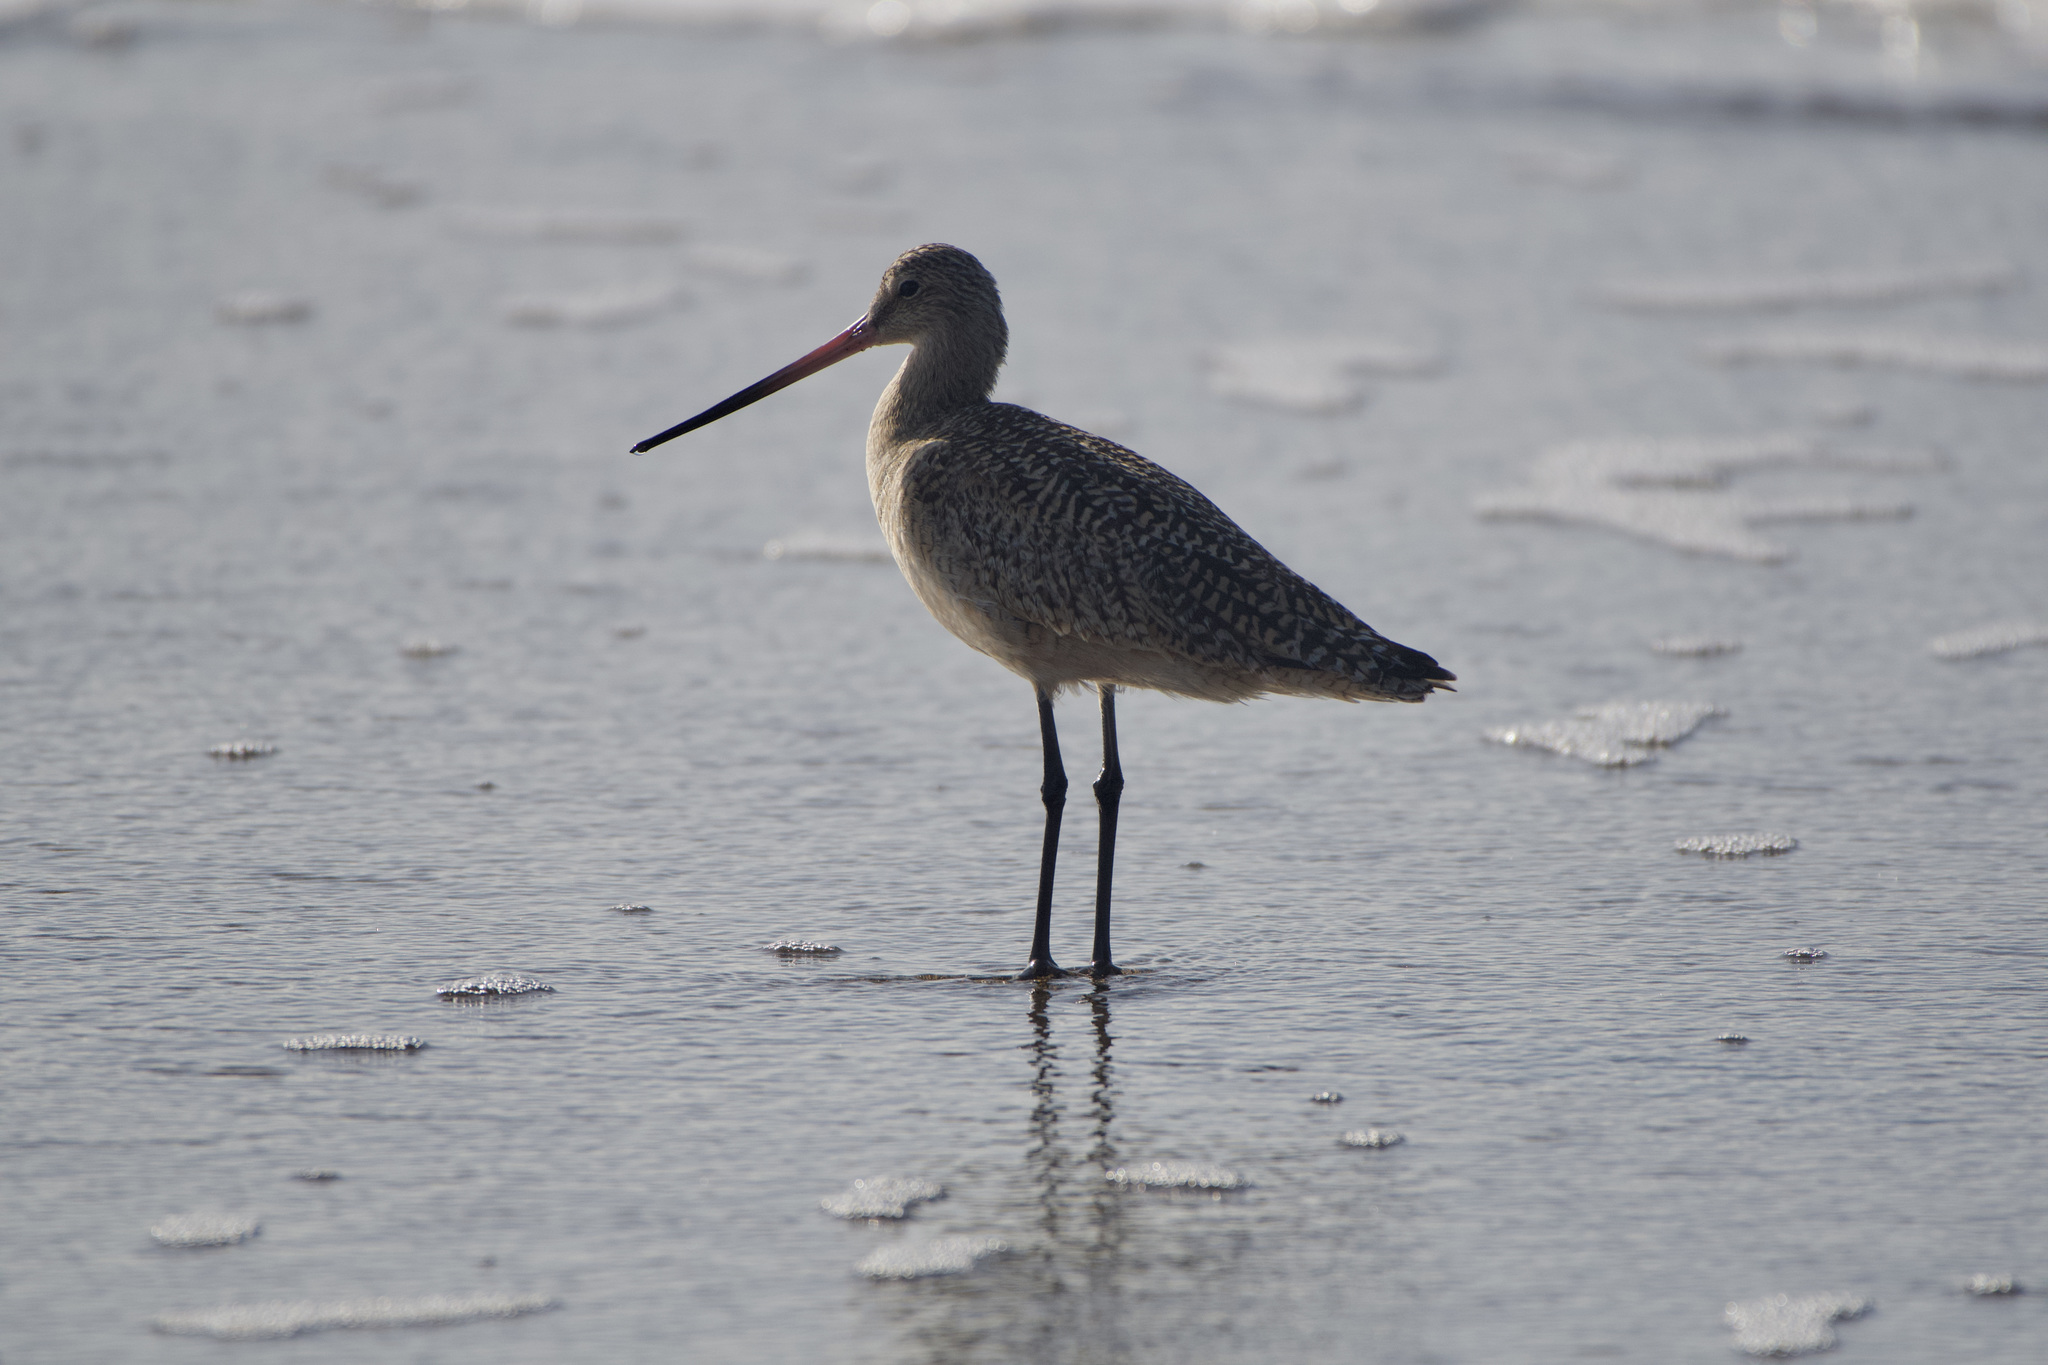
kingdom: Animalia
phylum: Chordata
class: Aves
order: Charadriiformes
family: Scolopacidae
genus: Limosa
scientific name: Limosa fedoa
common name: Marbled godwit
